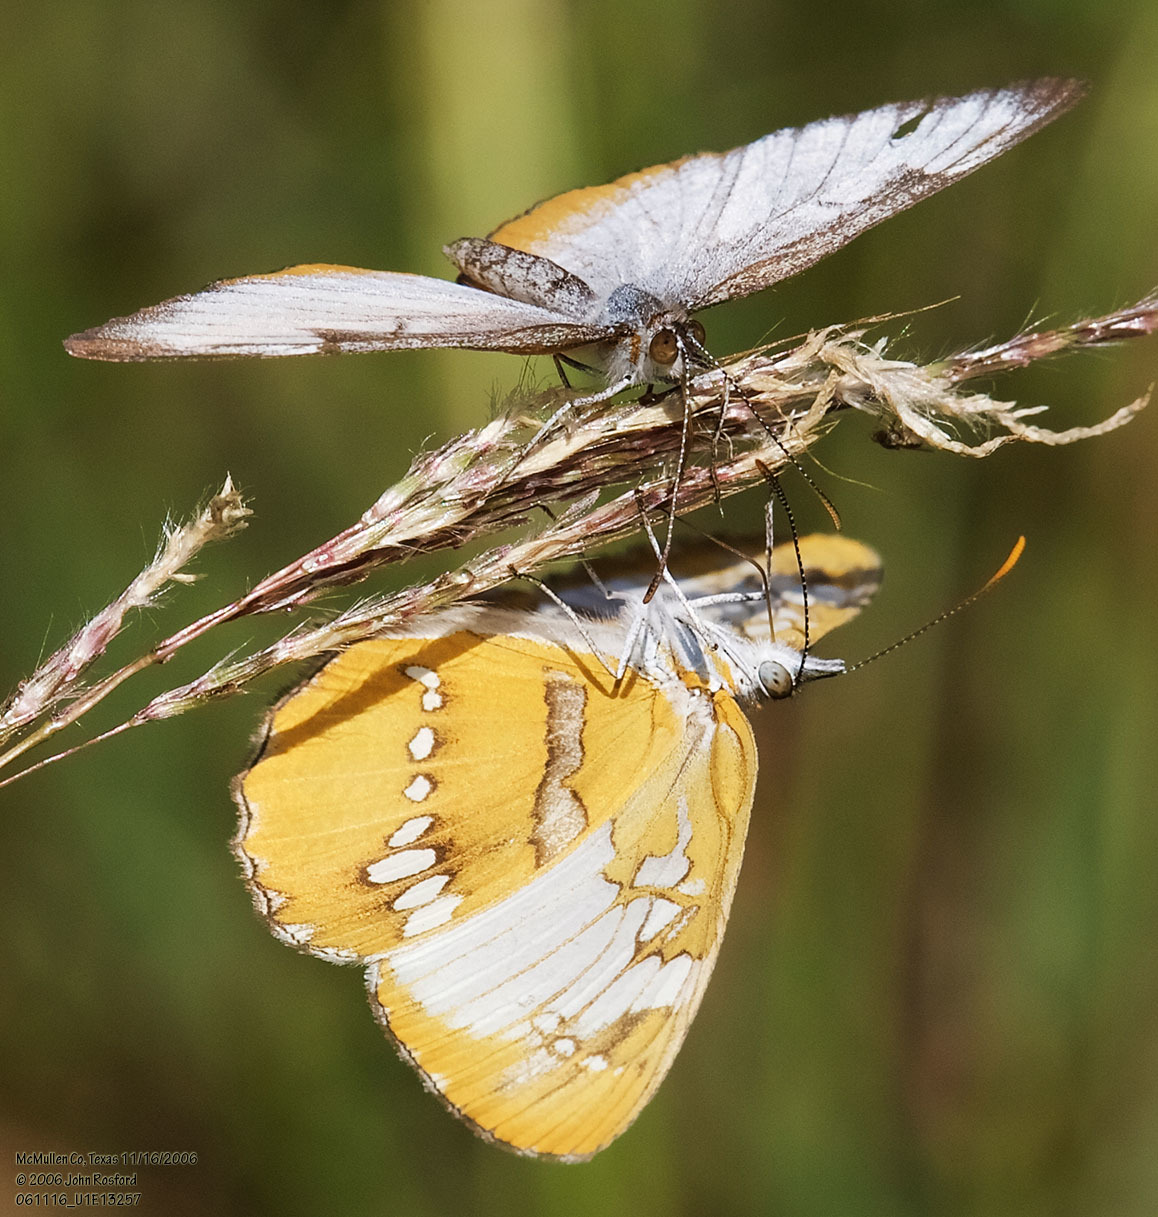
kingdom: Animalia
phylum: Arthropoda
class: Insecta
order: Lepidoptera
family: Nymphalidae
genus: Mestra
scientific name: Mestra amymone
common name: Common mestra
